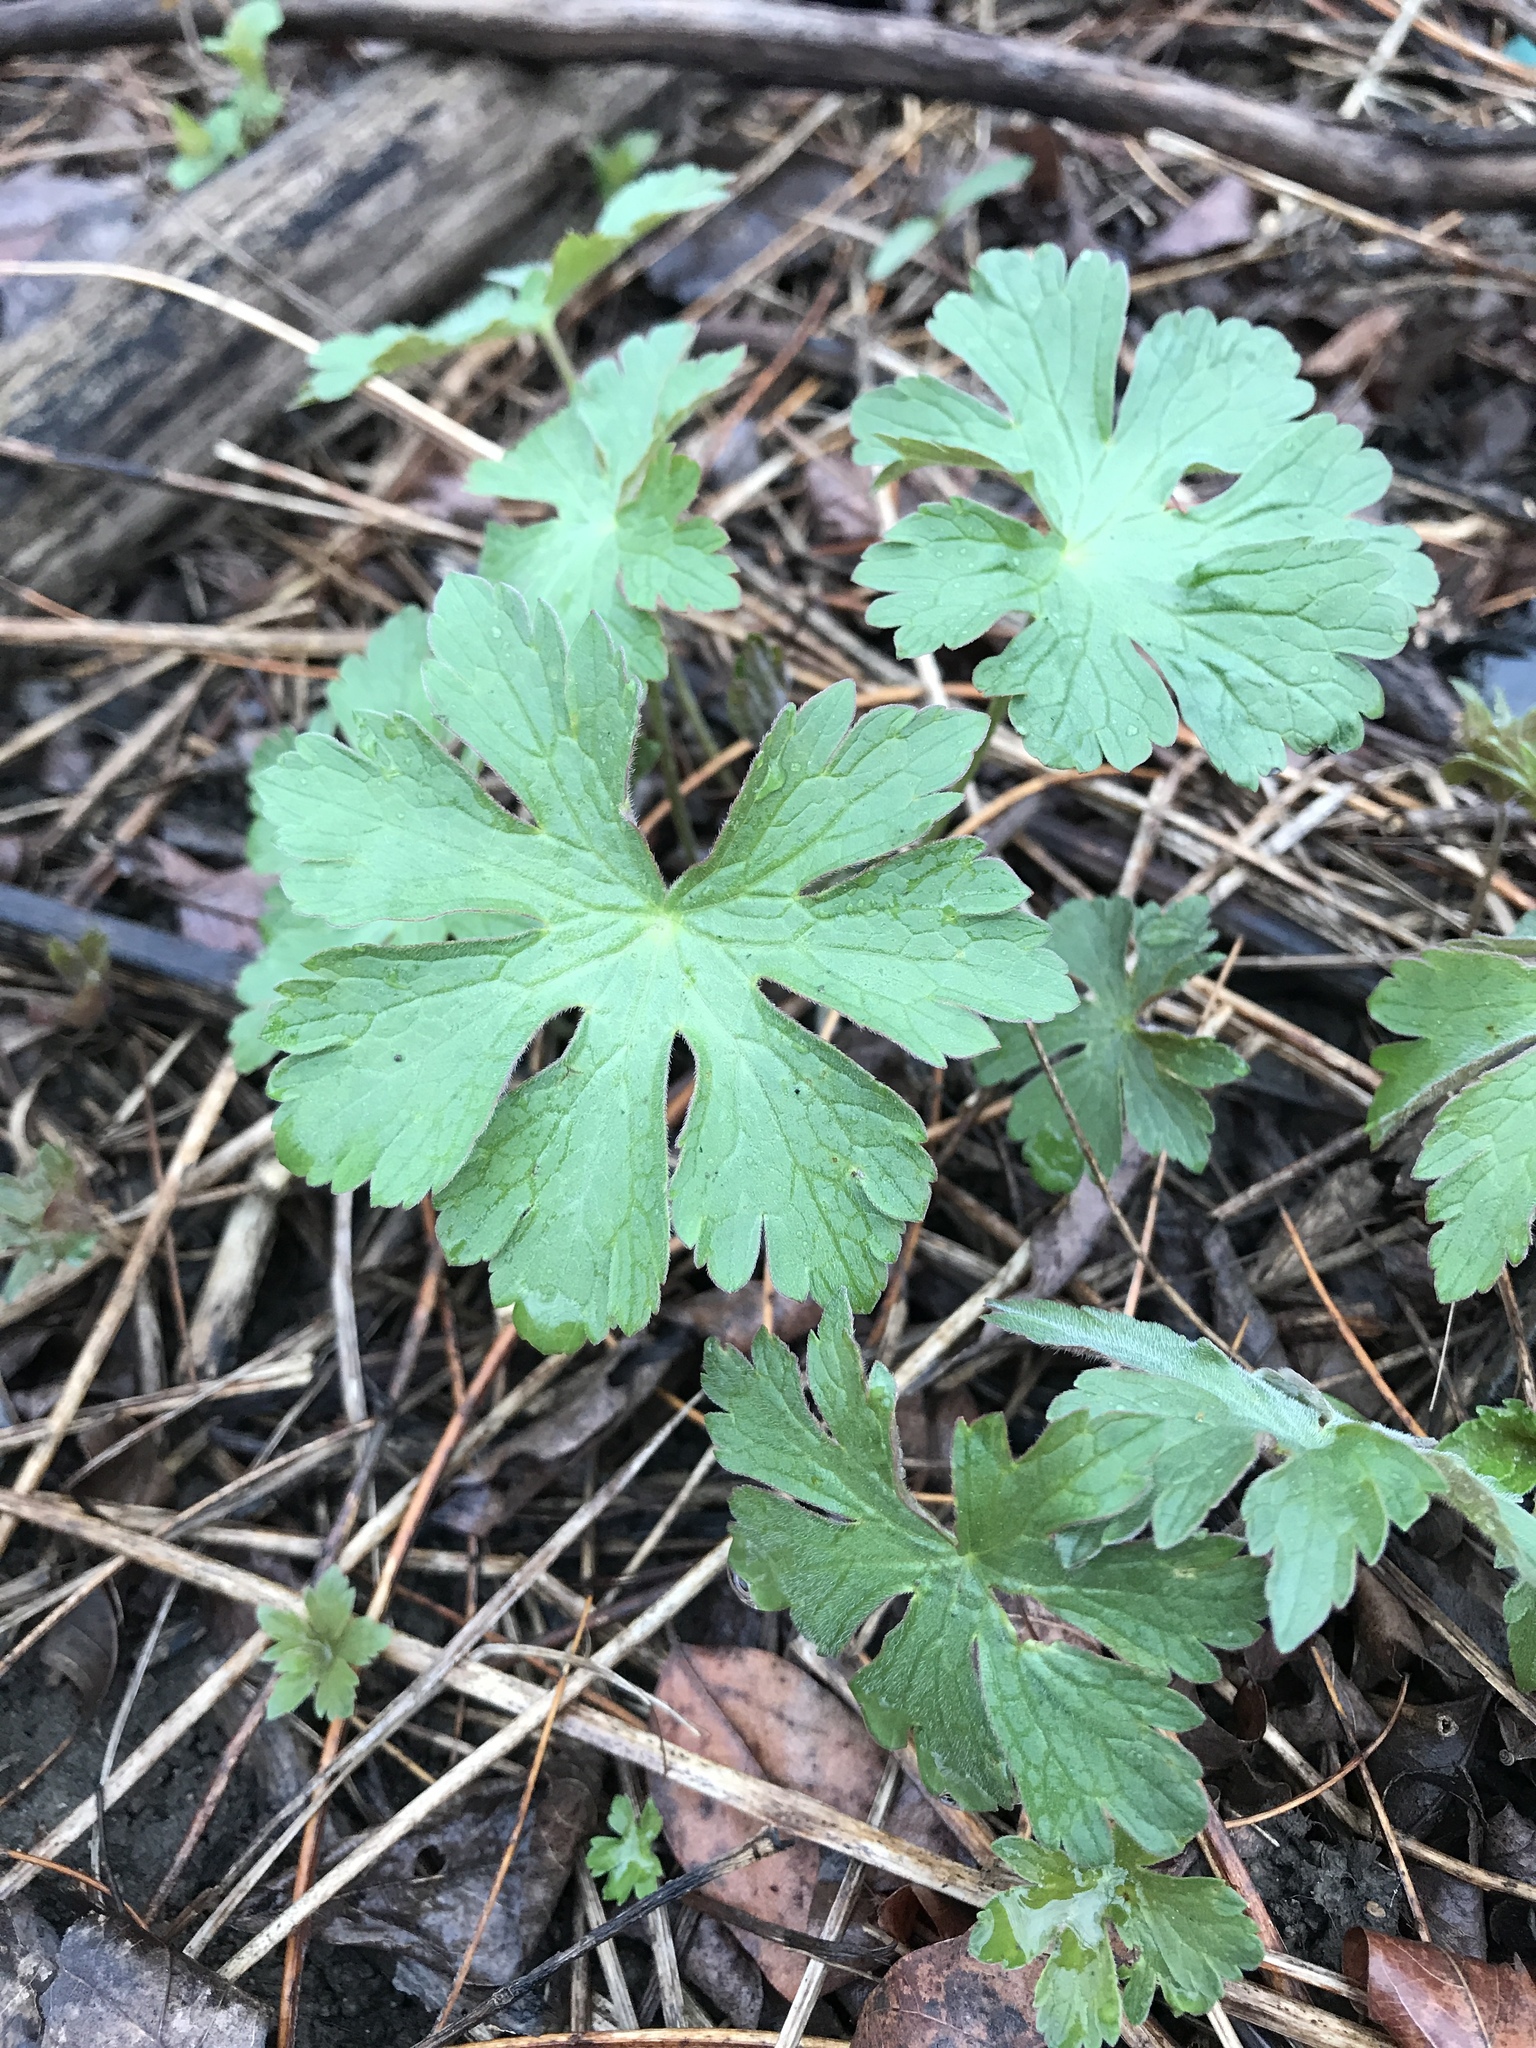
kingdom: Plantae
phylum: Tracheophyta
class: Magnoliopsida
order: Geraniales
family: Geraniaceae
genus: Geranium
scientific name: Geranium maculatum
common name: Spotted geranium
